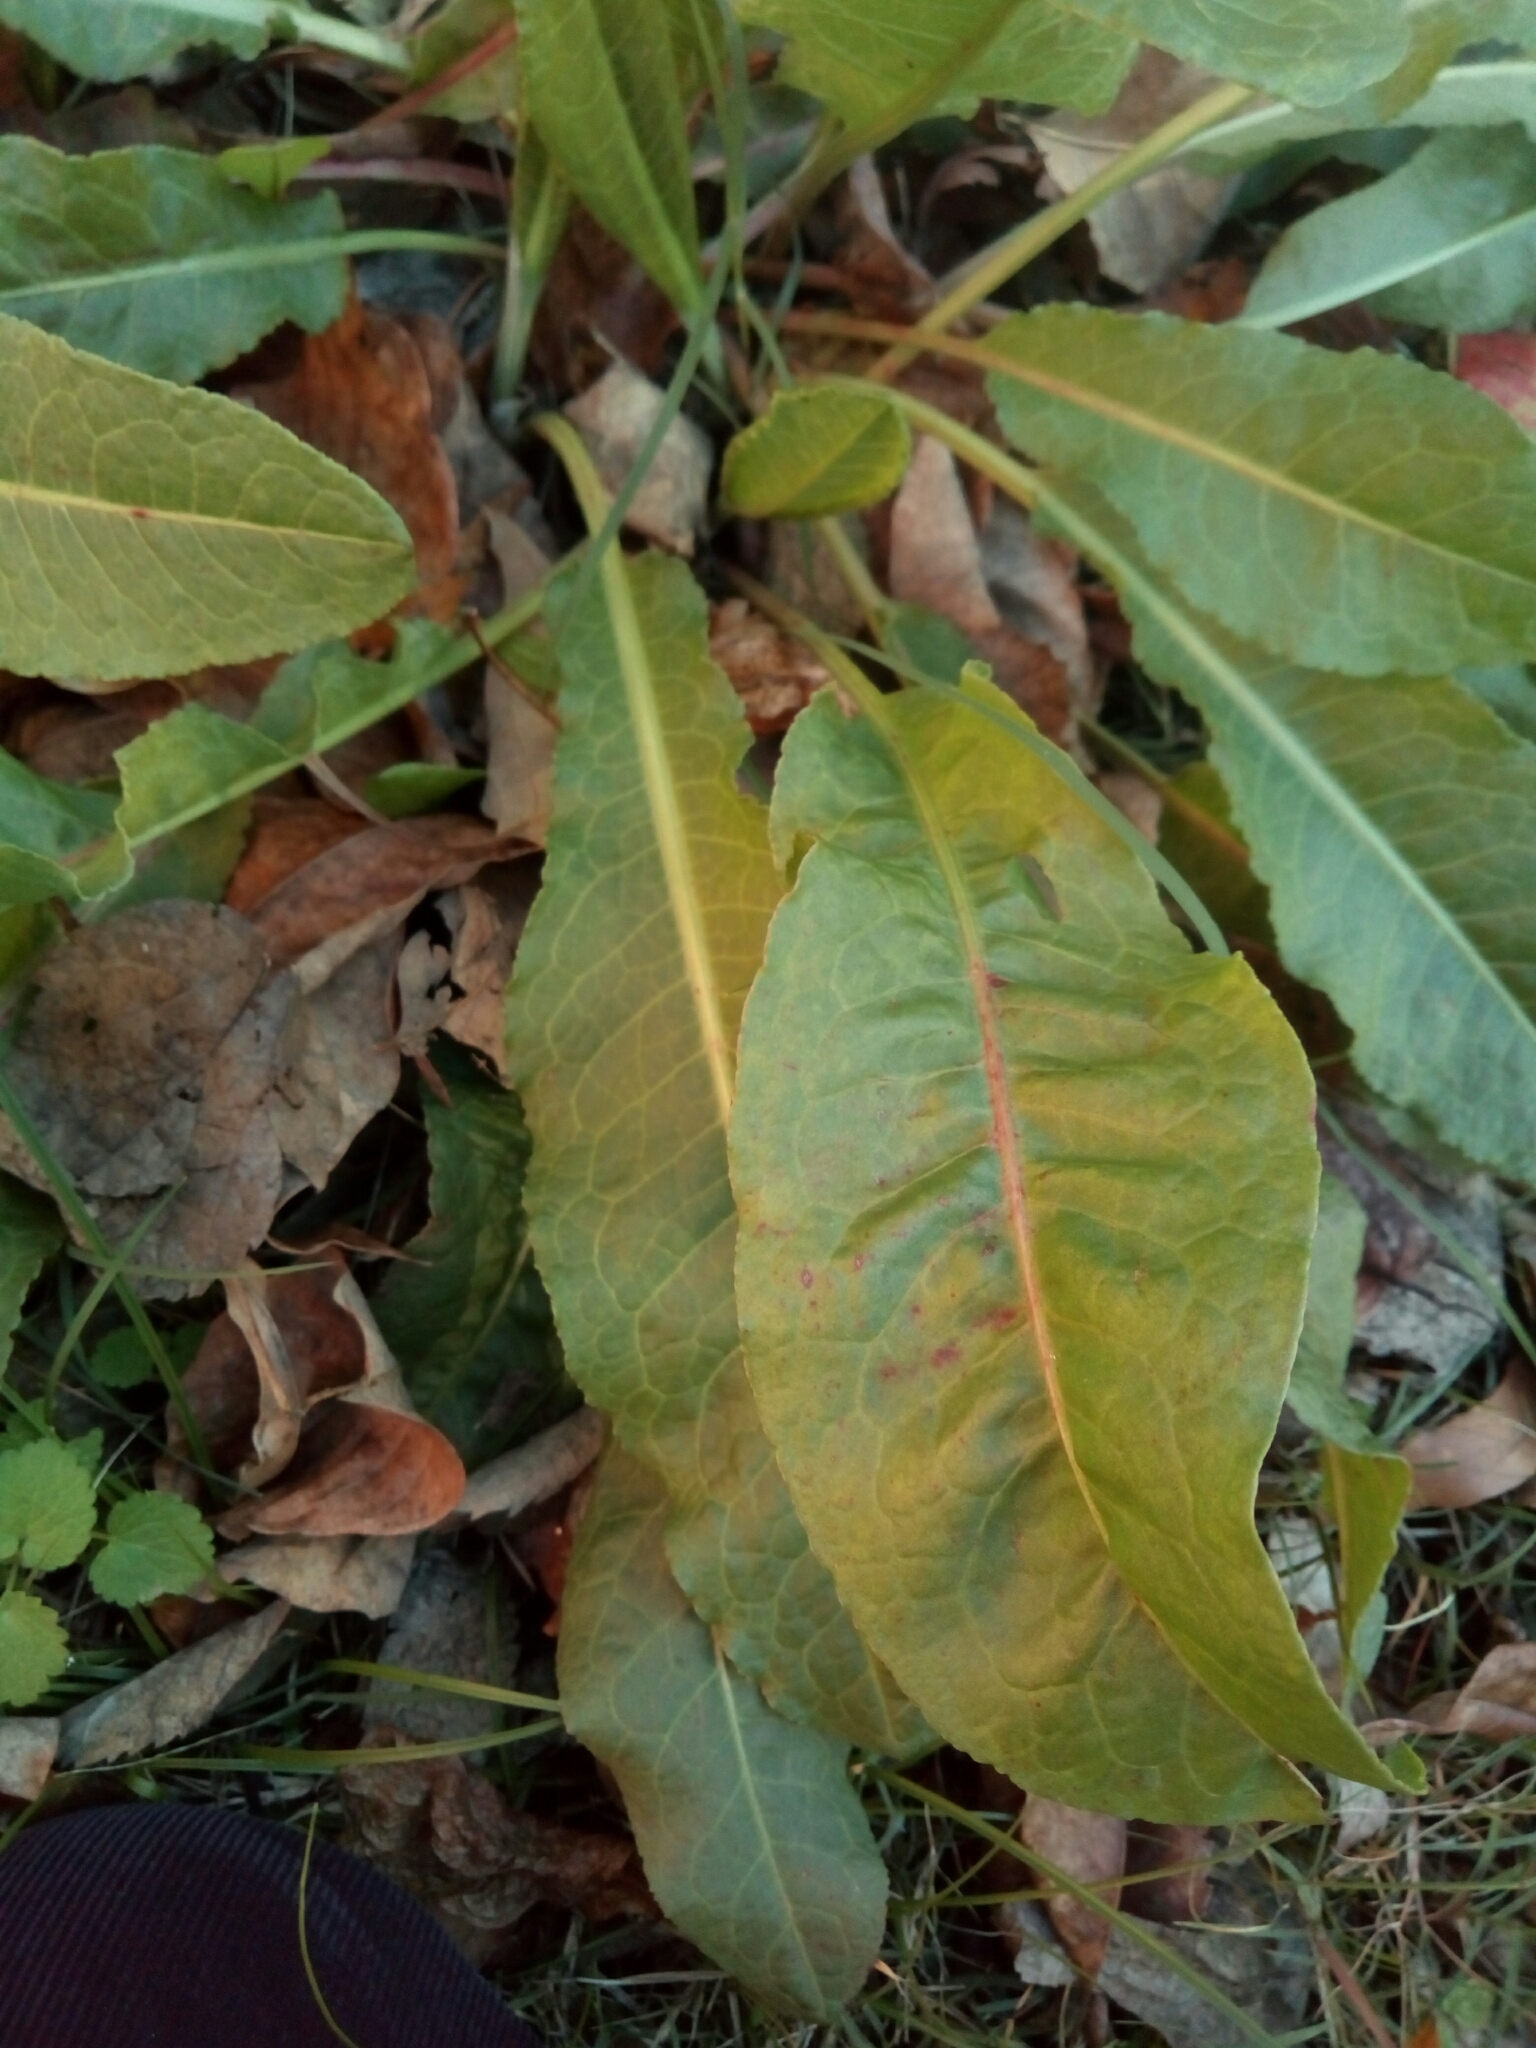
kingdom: Plantae
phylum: Tracheophyta
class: Magnoliopsida
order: Caryophyllales
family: Polygonaceae
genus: Rumex
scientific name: Rumex crispus
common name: Curled dock
